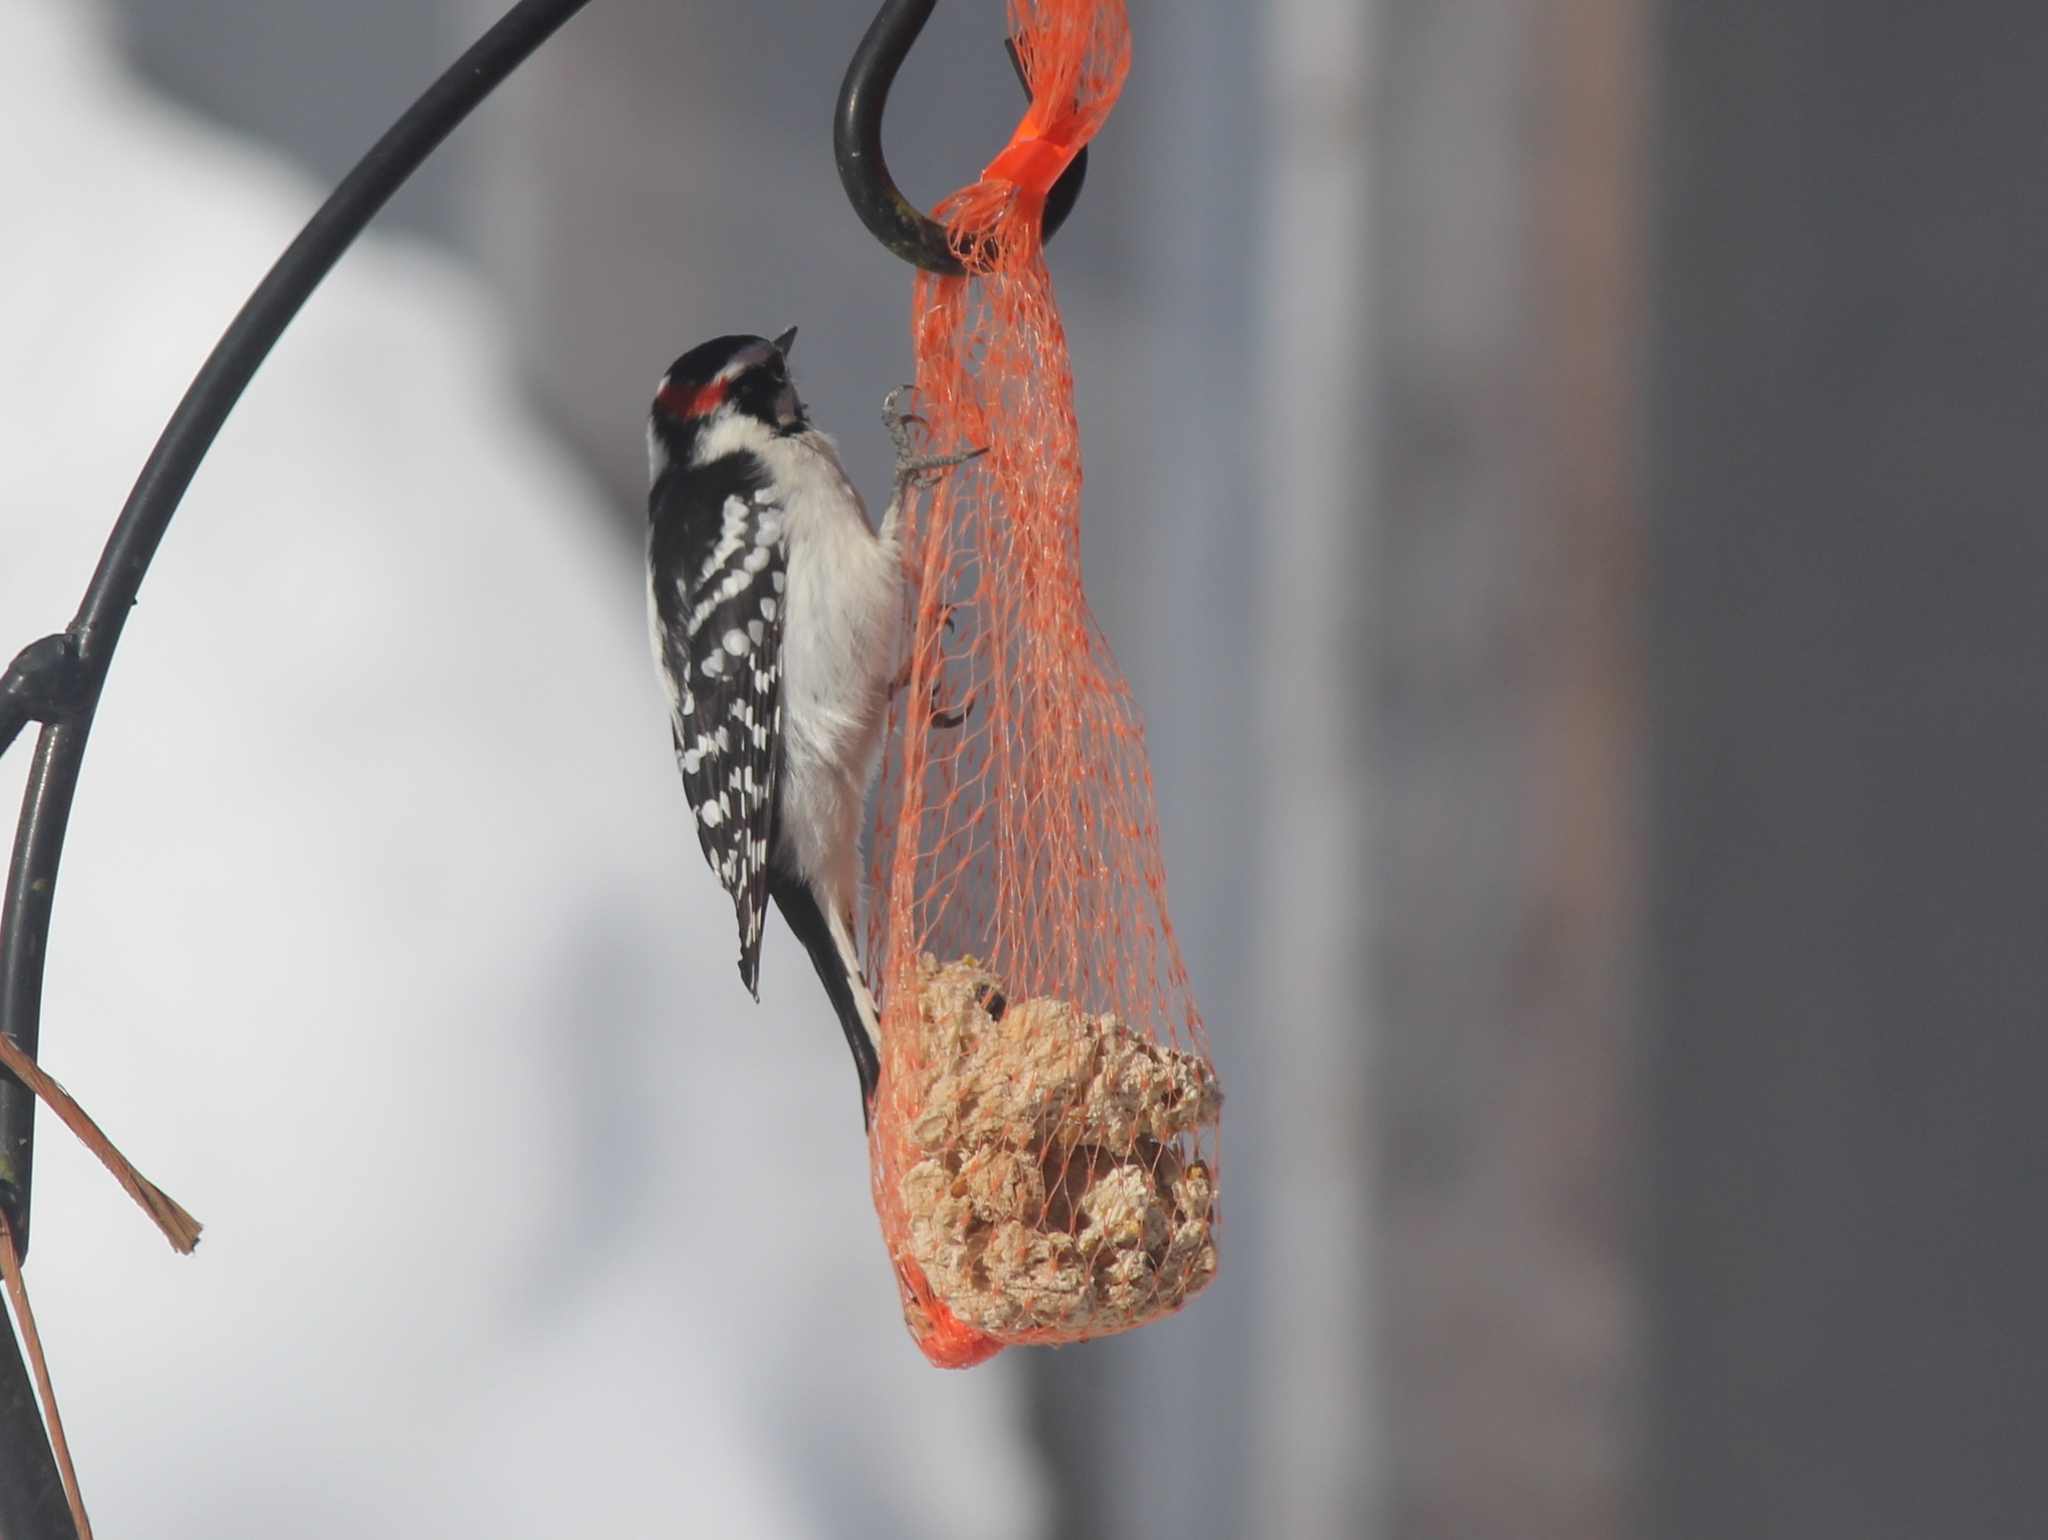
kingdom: Animalia
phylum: Chordata
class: Aves
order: Piciformes
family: Picidae
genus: Dryobates
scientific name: Dryobates pubescens
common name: Downy woodpecker
